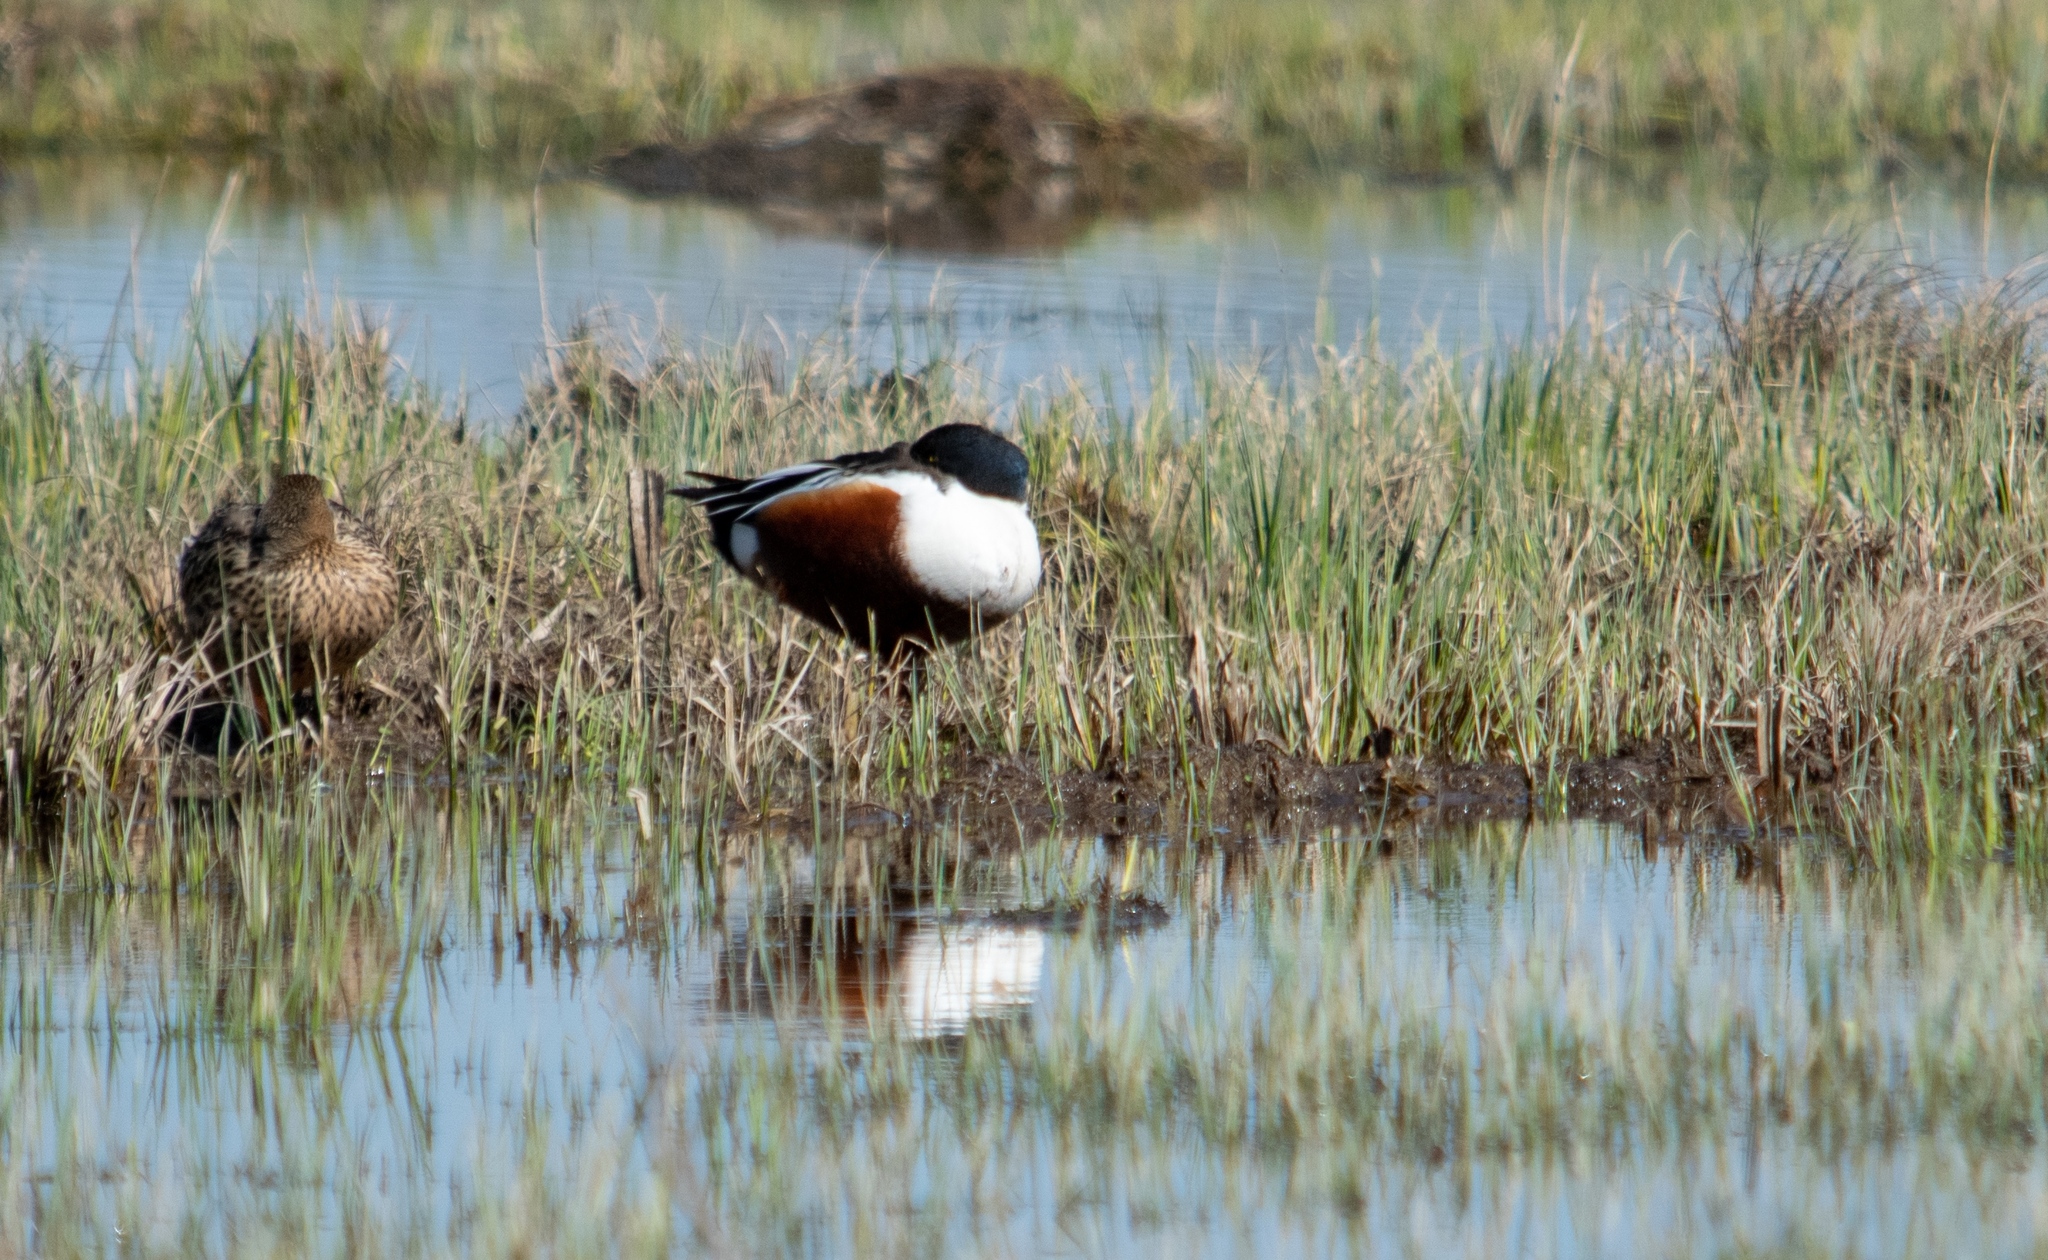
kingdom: Animalia
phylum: Chordata
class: Aves
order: Anseriformes
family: Anatidae
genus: Spatula
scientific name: Spatula clypeata
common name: Northern shoveler
